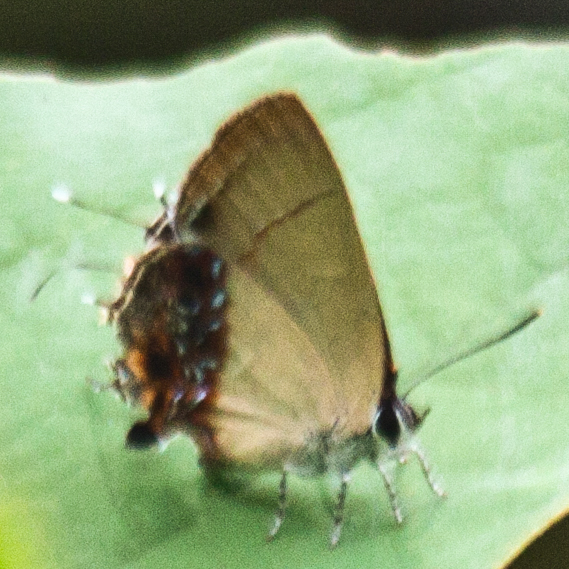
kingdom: Animalia
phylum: Arthropoda
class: Insecta
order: Lepidoptera
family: Lycaenidae
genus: Semanga
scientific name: Semanga superba
